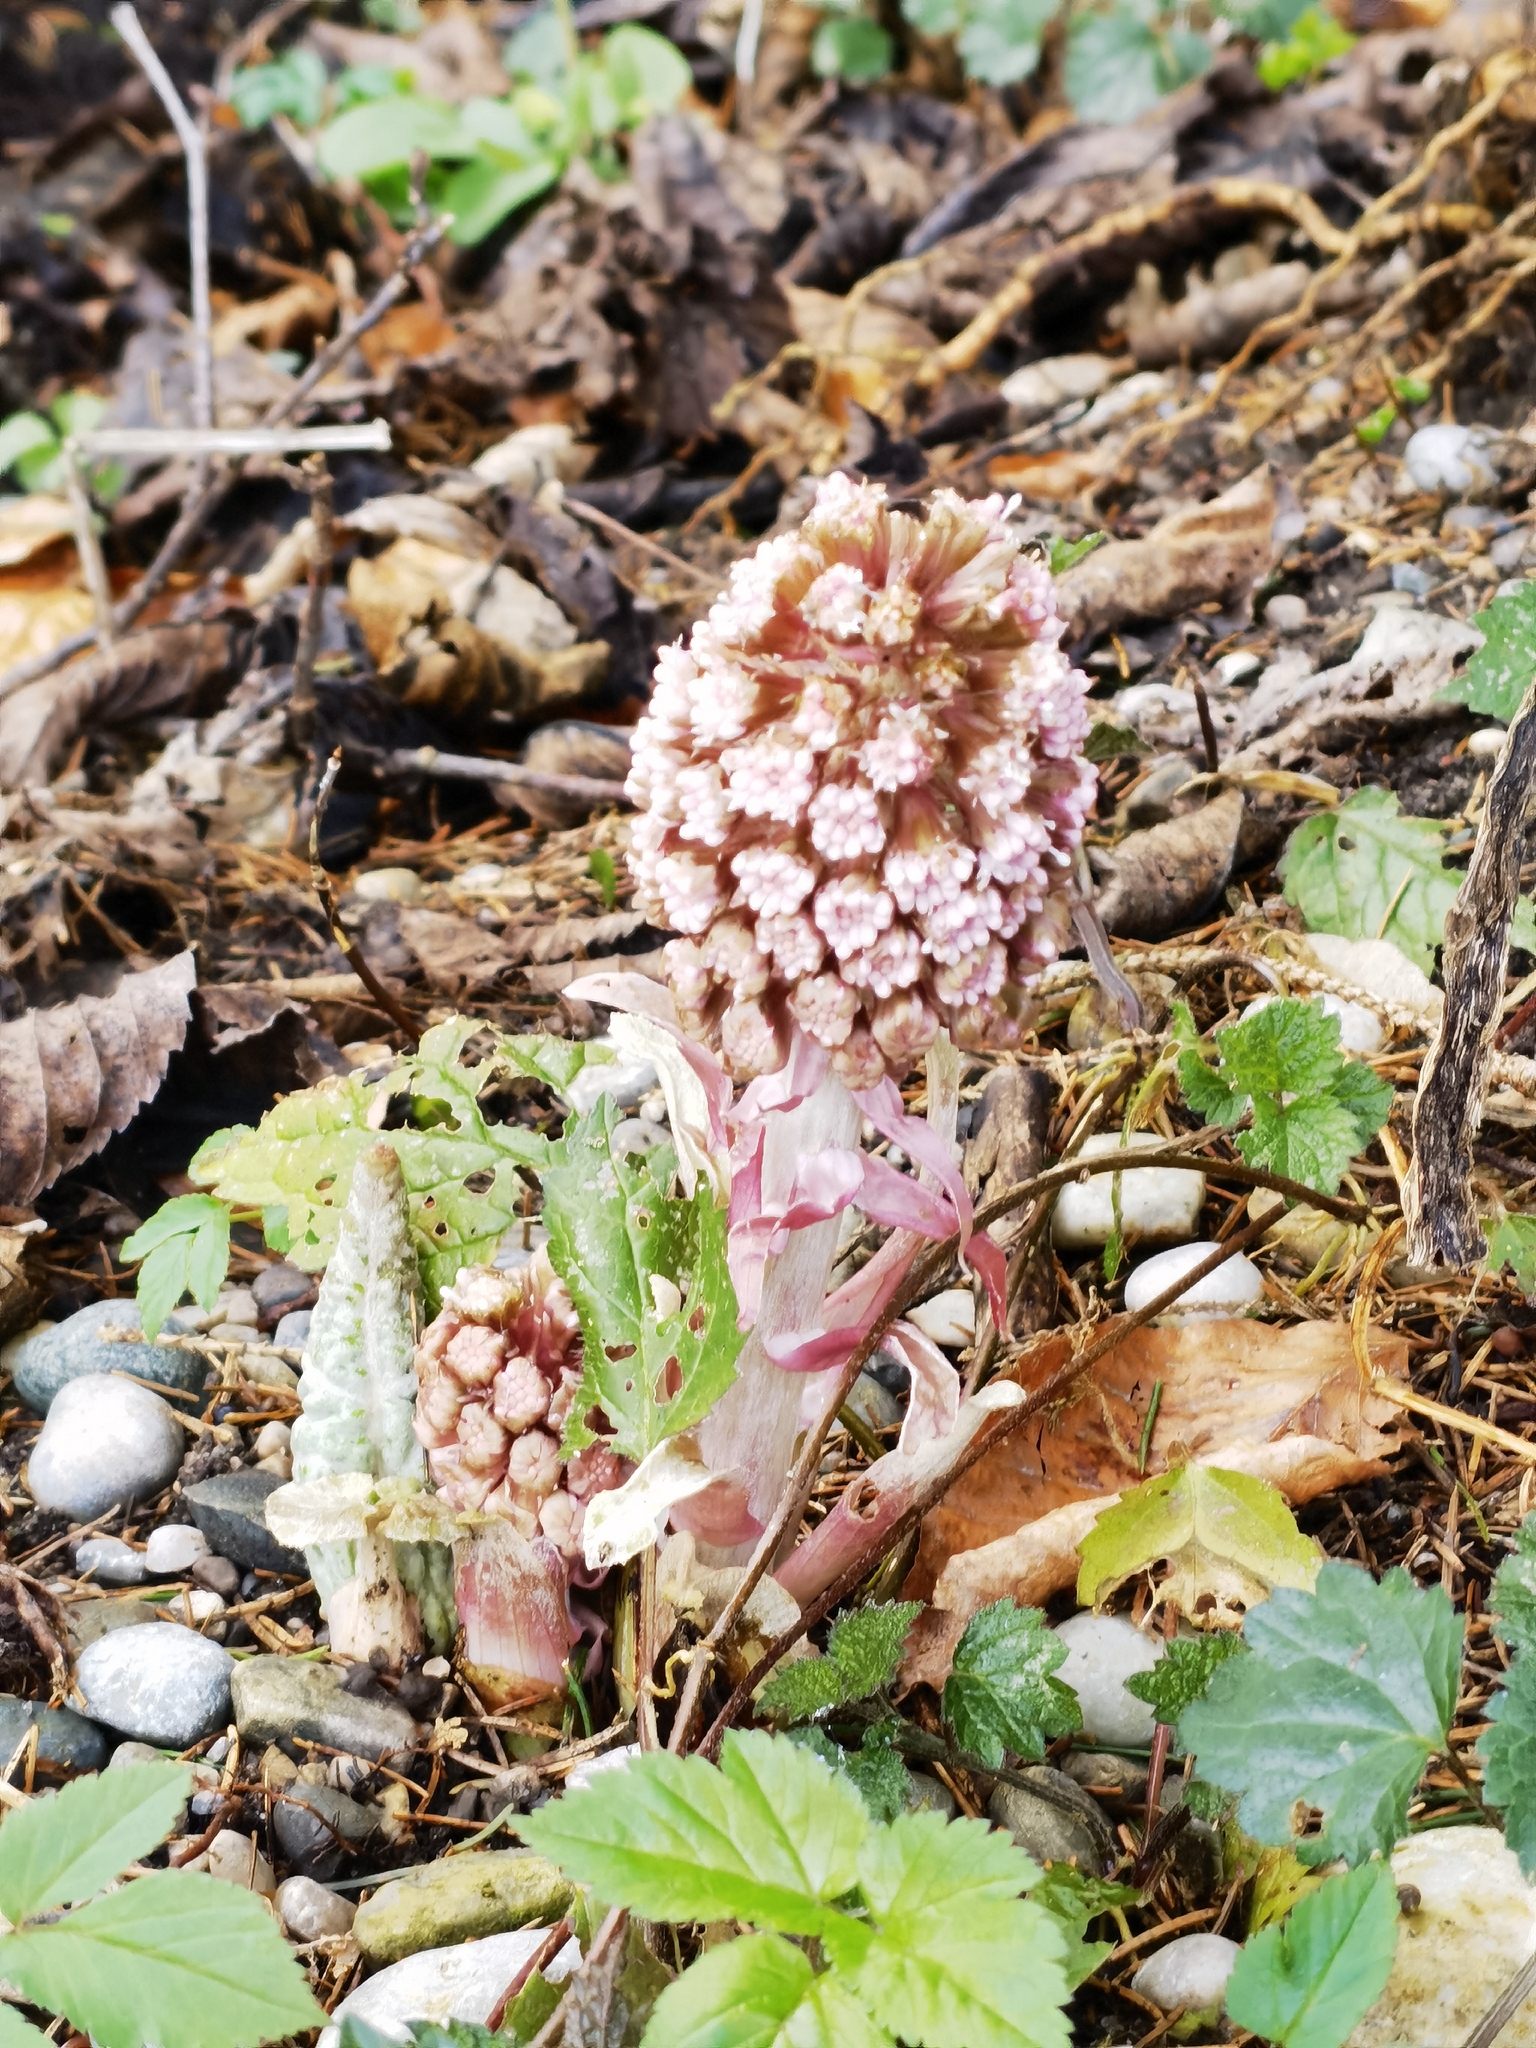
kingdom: Plantae
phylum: Tracheophyta
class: Magnoliopsida
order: Asterales
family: Asteraceae
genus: Petasites
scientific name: Petasites hybridus
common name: Butterbur
